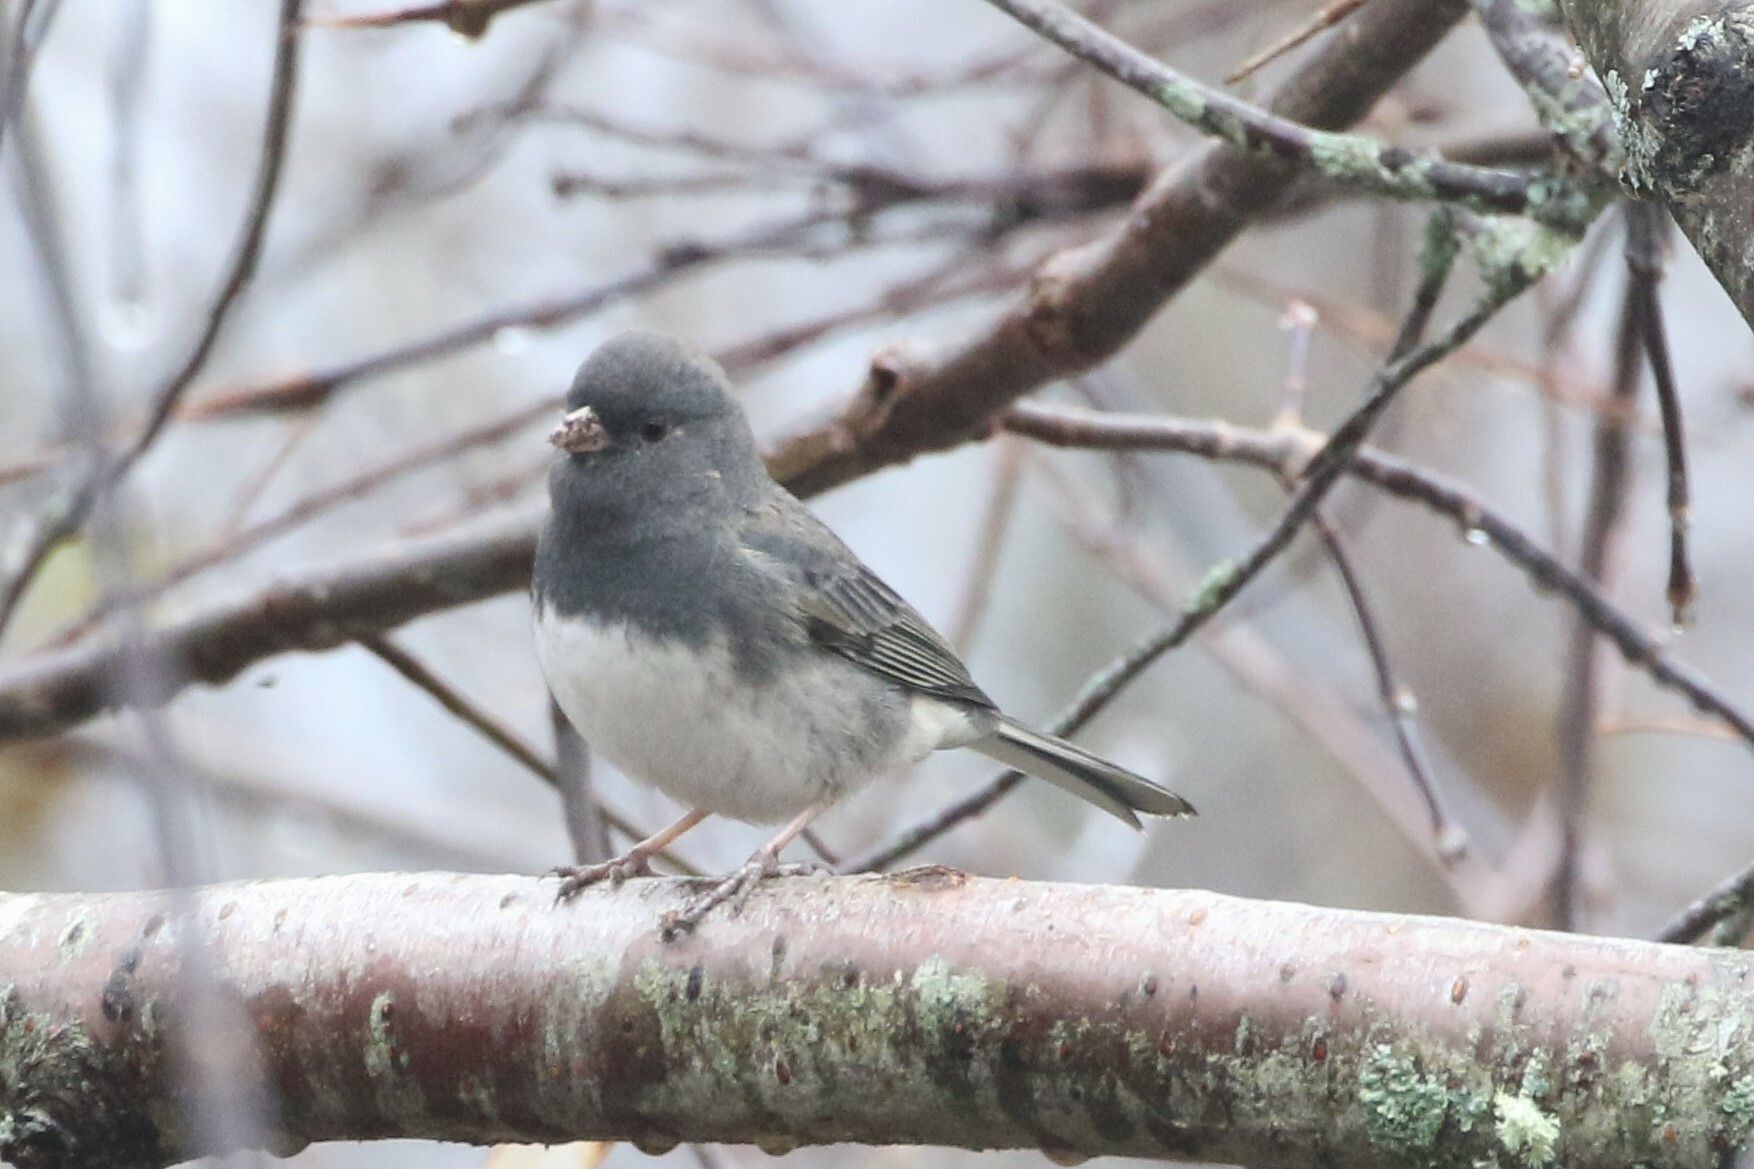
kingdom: Animalia
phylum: Chordata
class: Aves
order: Passeriformes
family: Passerellidae
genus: Junco
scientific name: Junco hyemalis
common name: Dark-eyed junco
